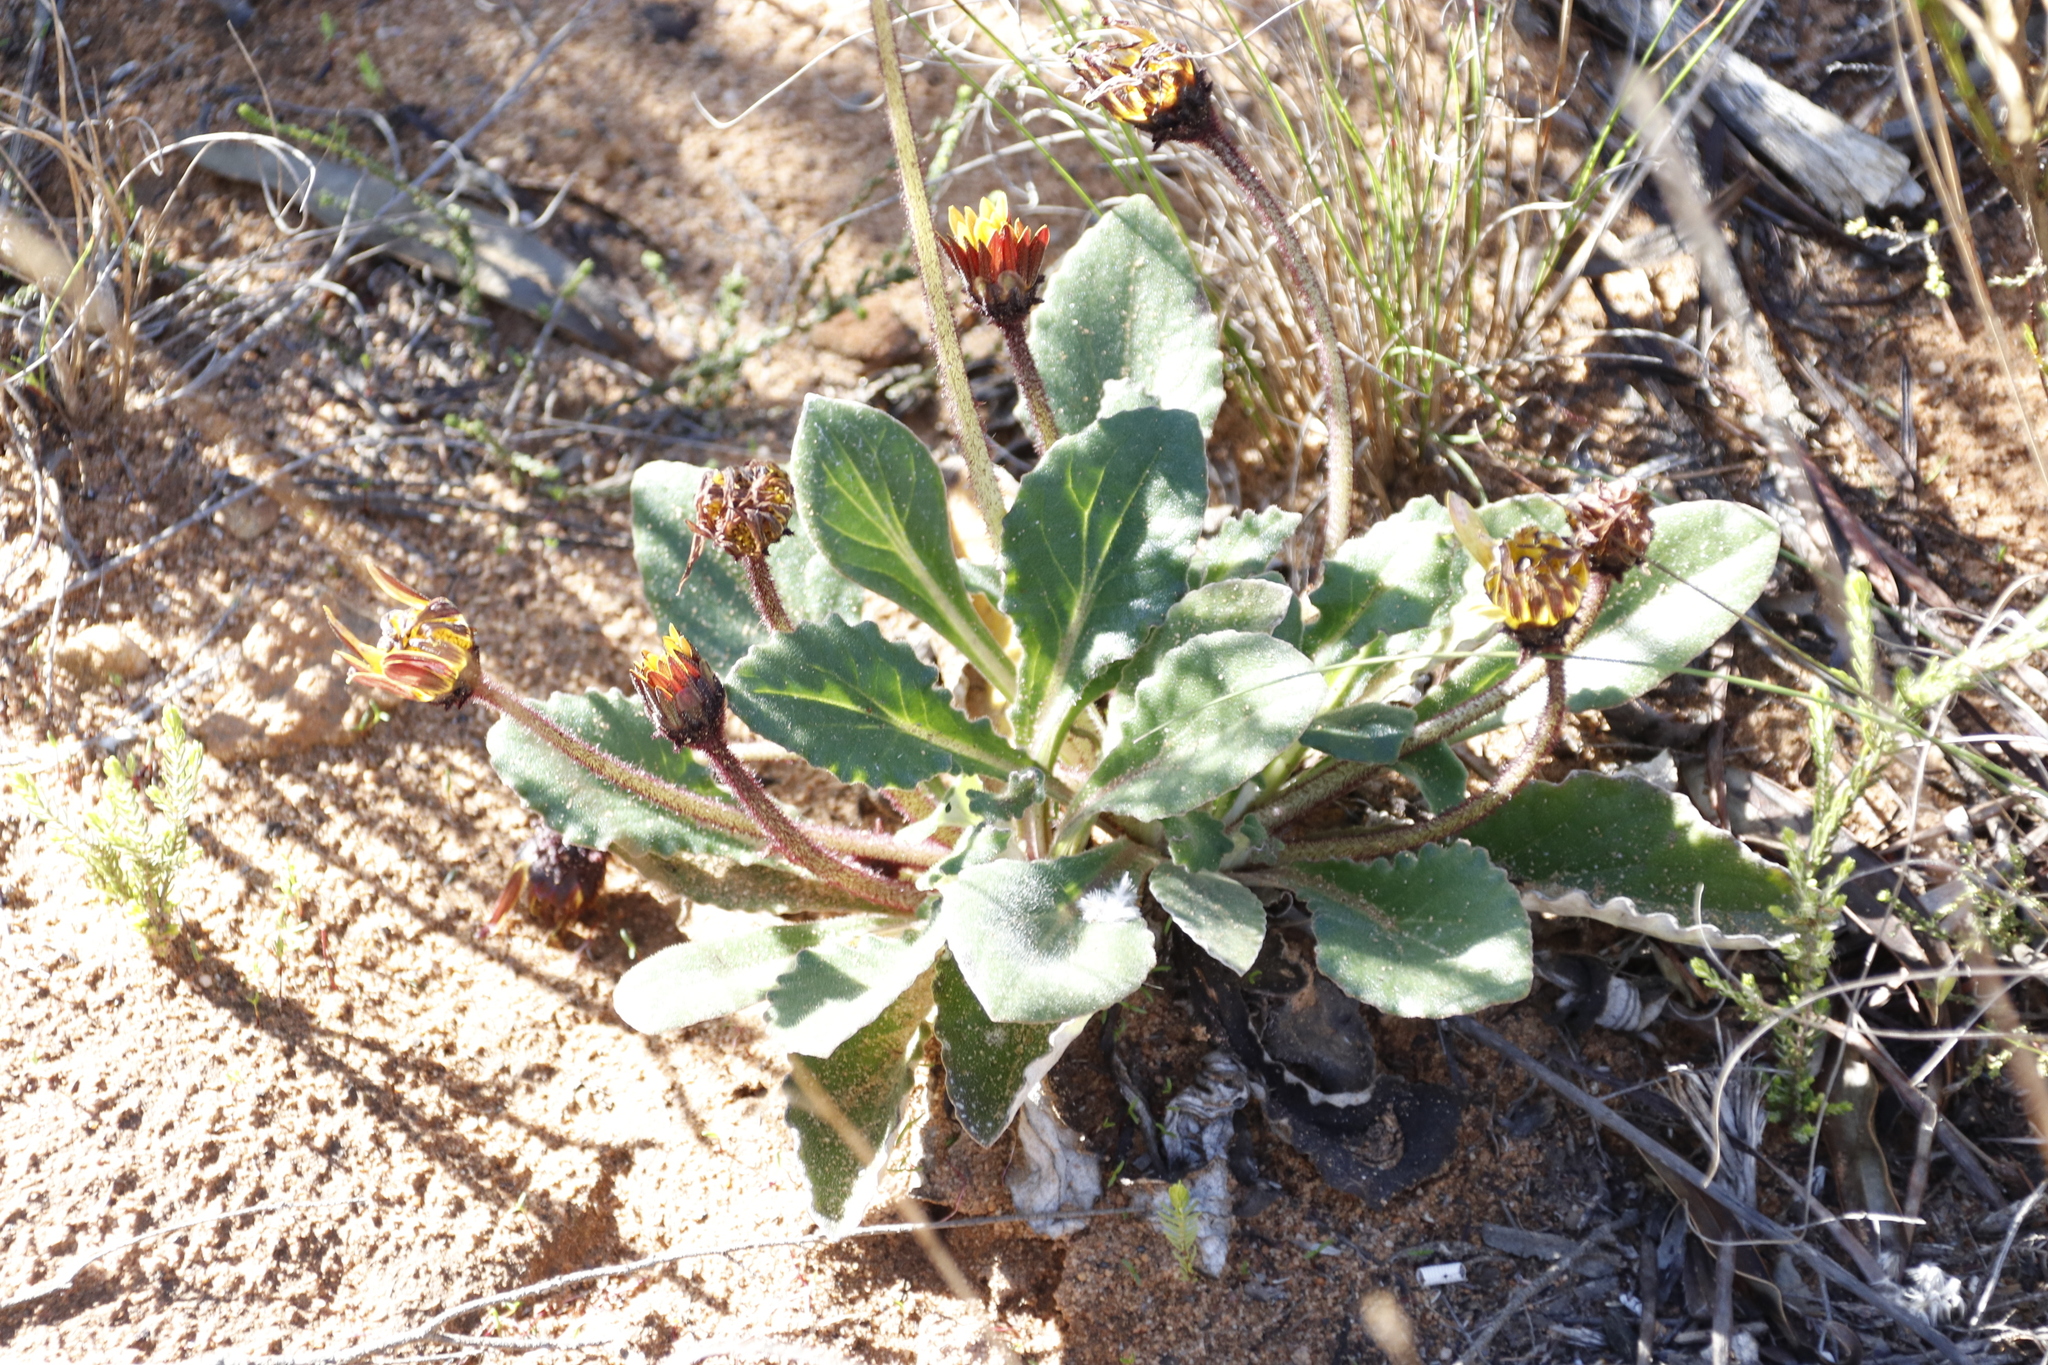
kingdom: Plantae
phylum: Tracheophyta
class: Magnoliopsida
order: Asterales
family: Asteraceae
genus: Haplocarpha
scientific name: Haplocarpha lanata
